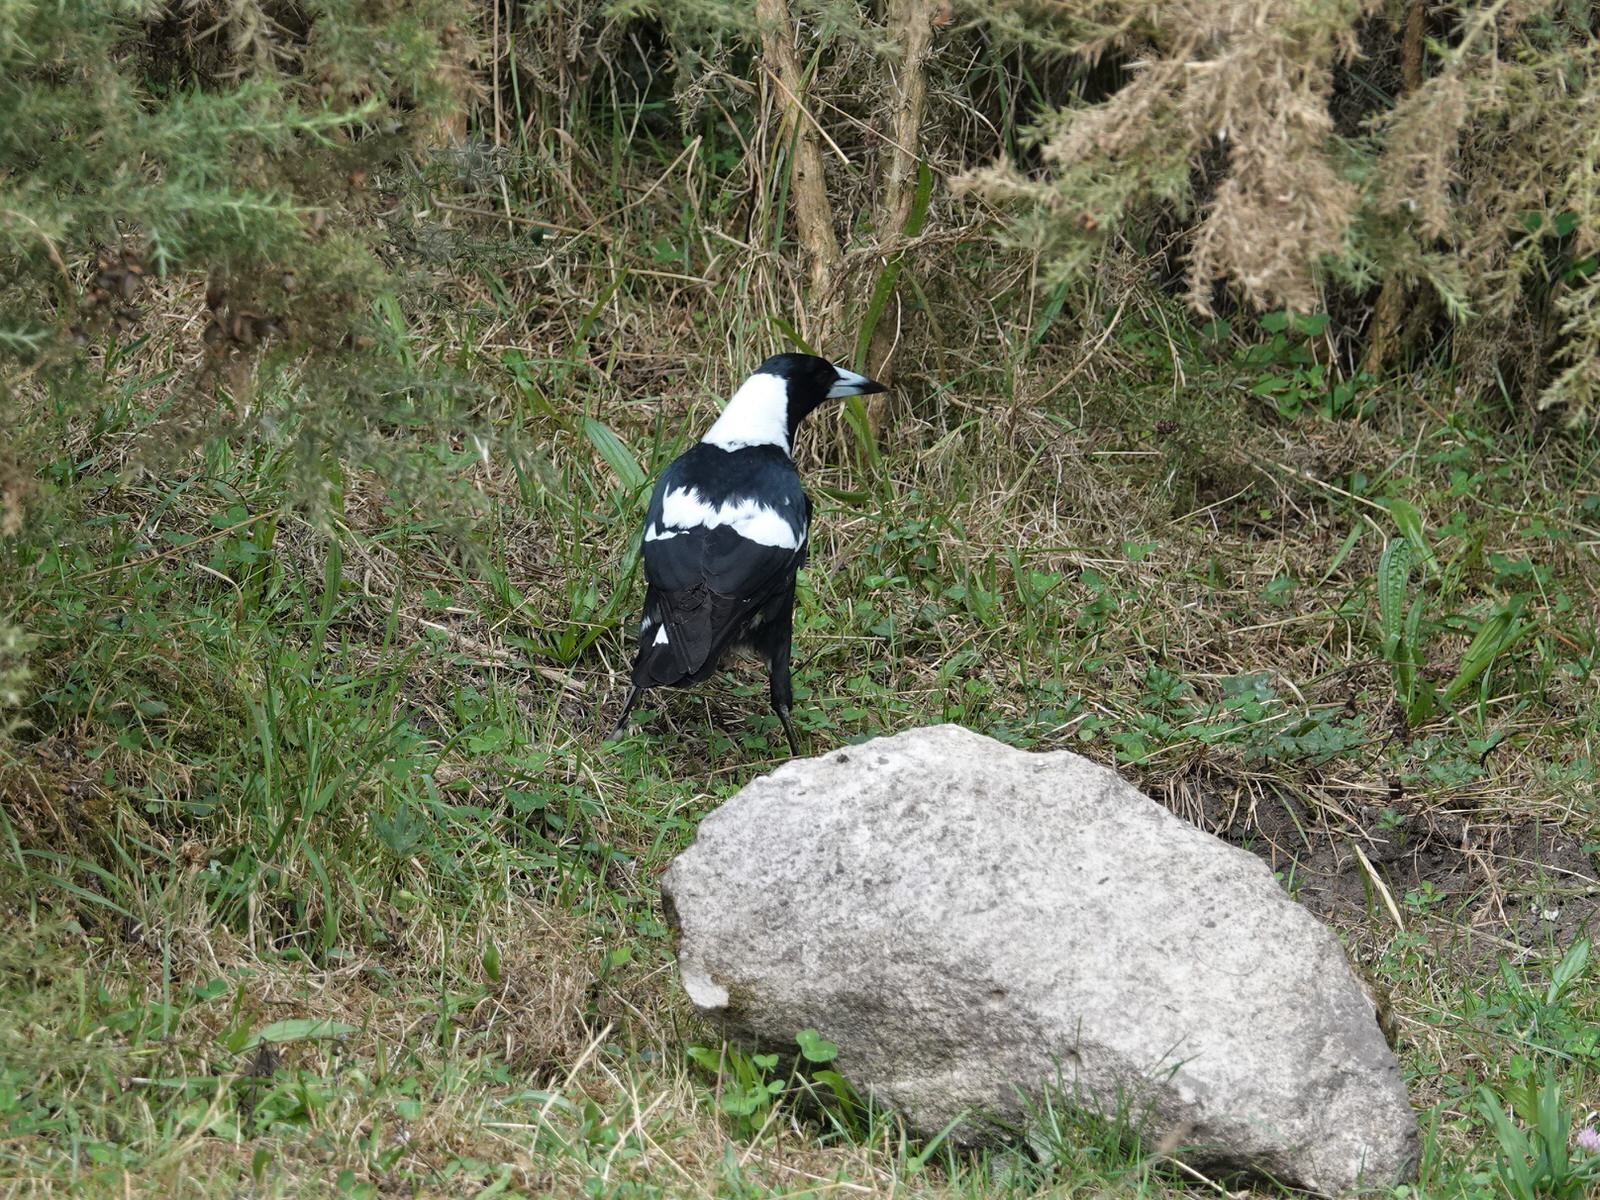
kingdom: Animalia
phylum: Chordata
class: Aves
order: Passeriformes
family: Cracticidae
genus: Gymnorhina
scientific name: Gymnorhina tibicen
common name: Australian magpie
